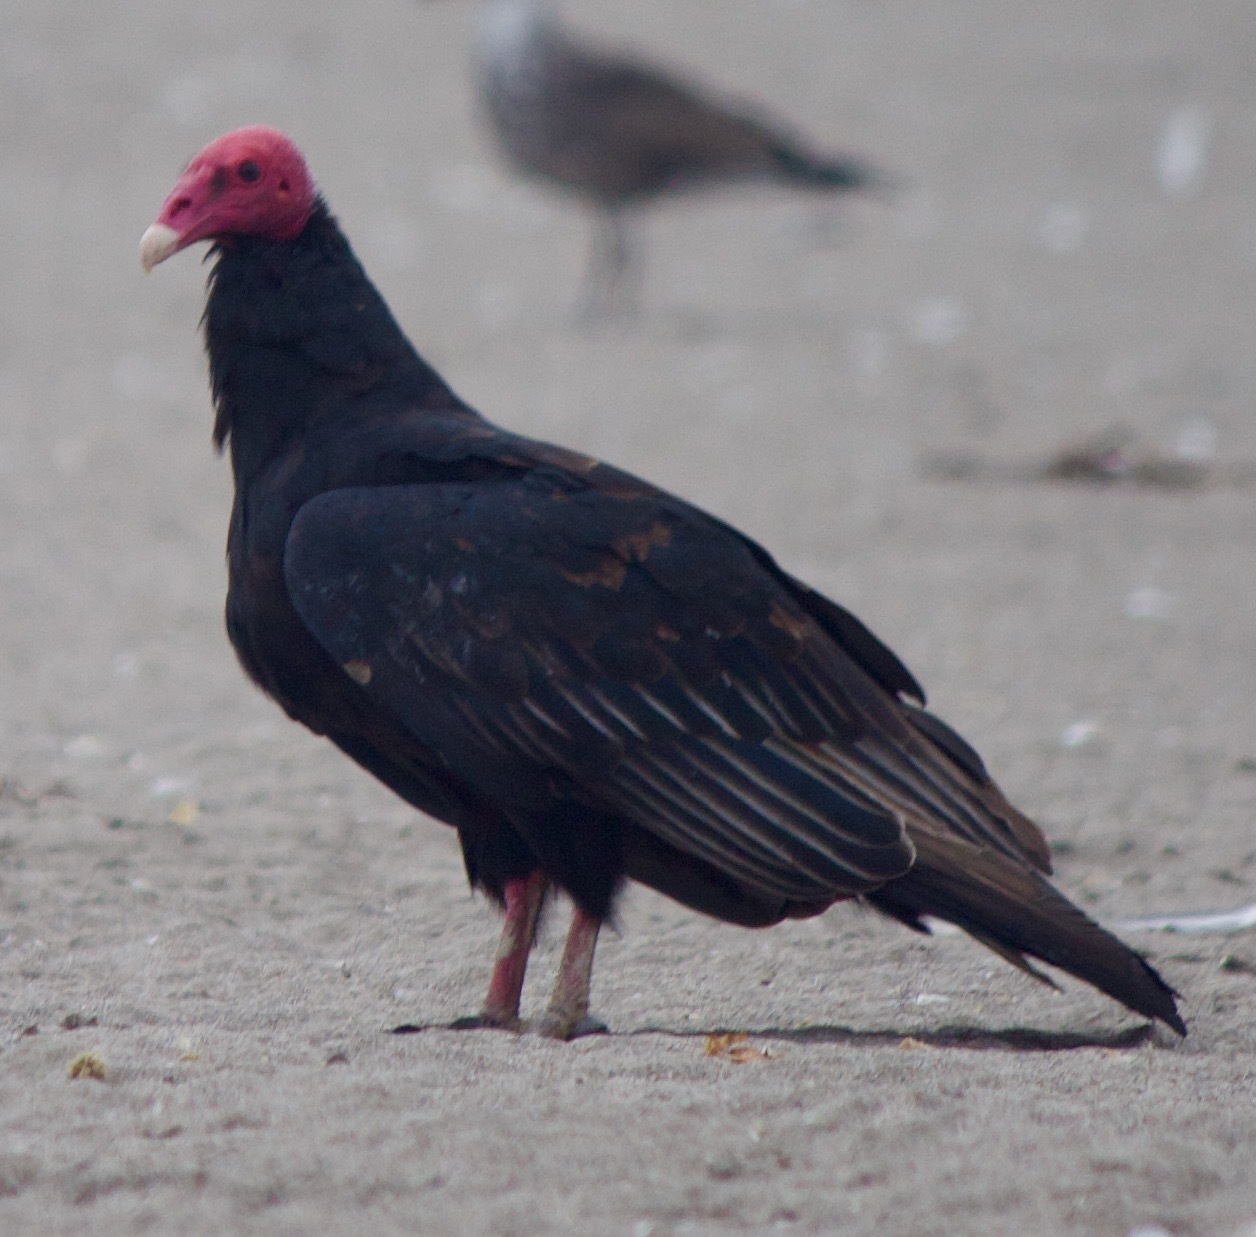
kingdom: Animalia
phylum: Chordata
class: Aves
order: Accipitriformes
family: Cathartidae
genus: Cathartes
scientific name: Cathartes aura
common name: Turkey vulture
